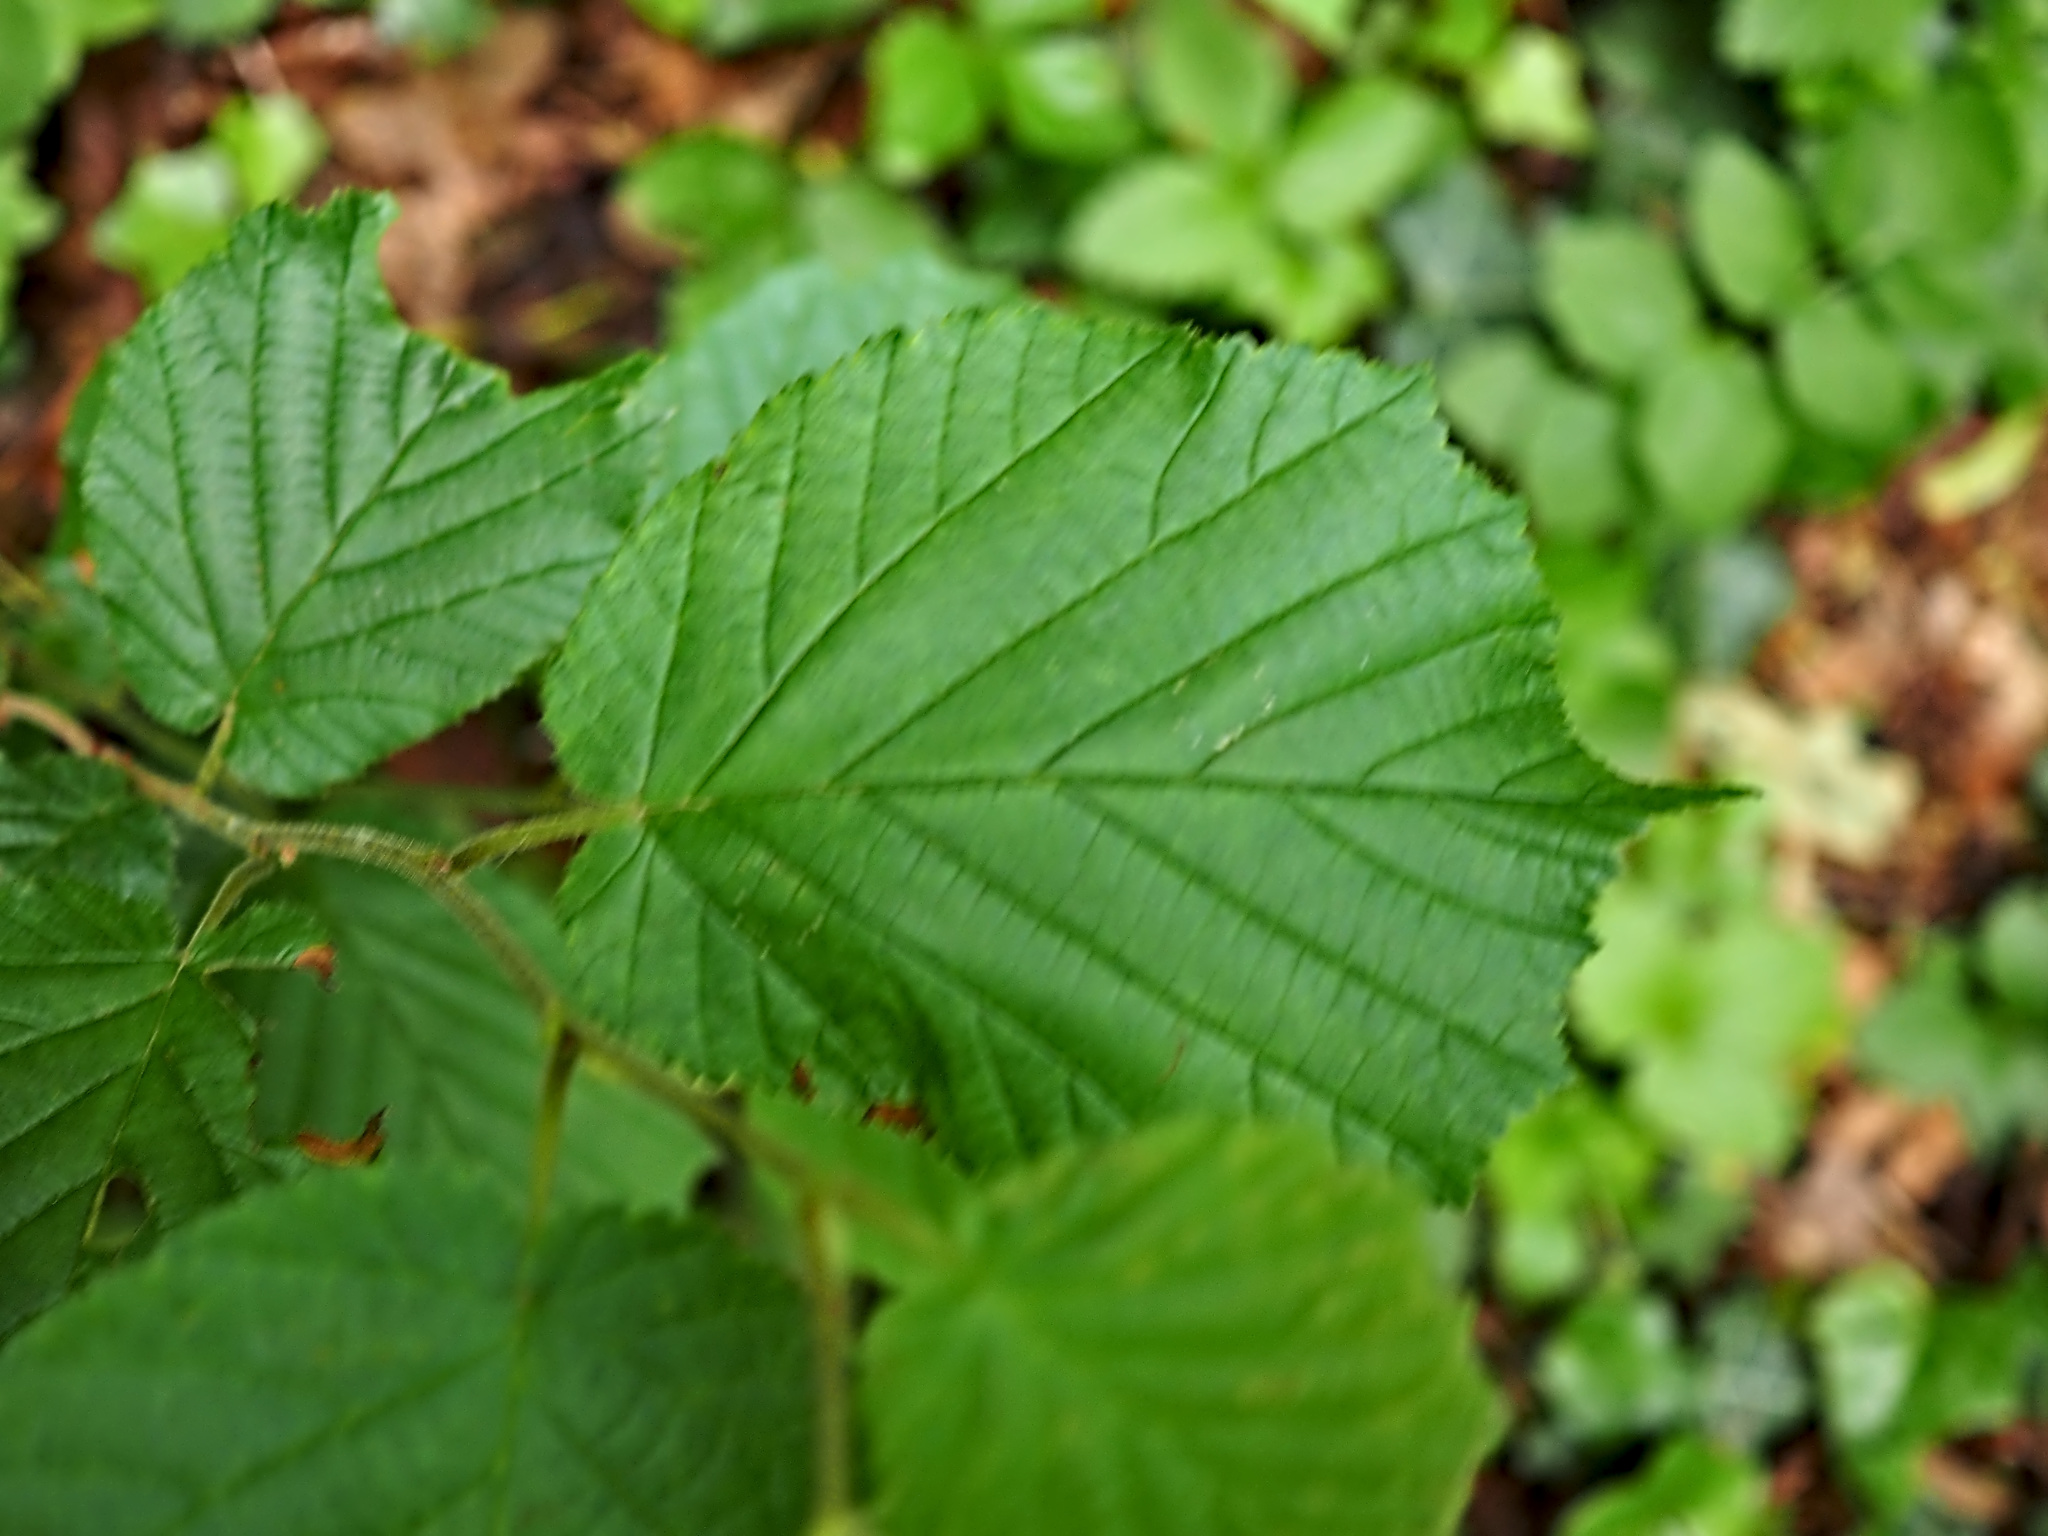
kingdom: Plantae
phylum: Tracheophyta
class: Magnoliopsida
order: Fagales
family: Betulaceae
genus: Corylus
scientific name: Corylus avellana
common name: European hazel
